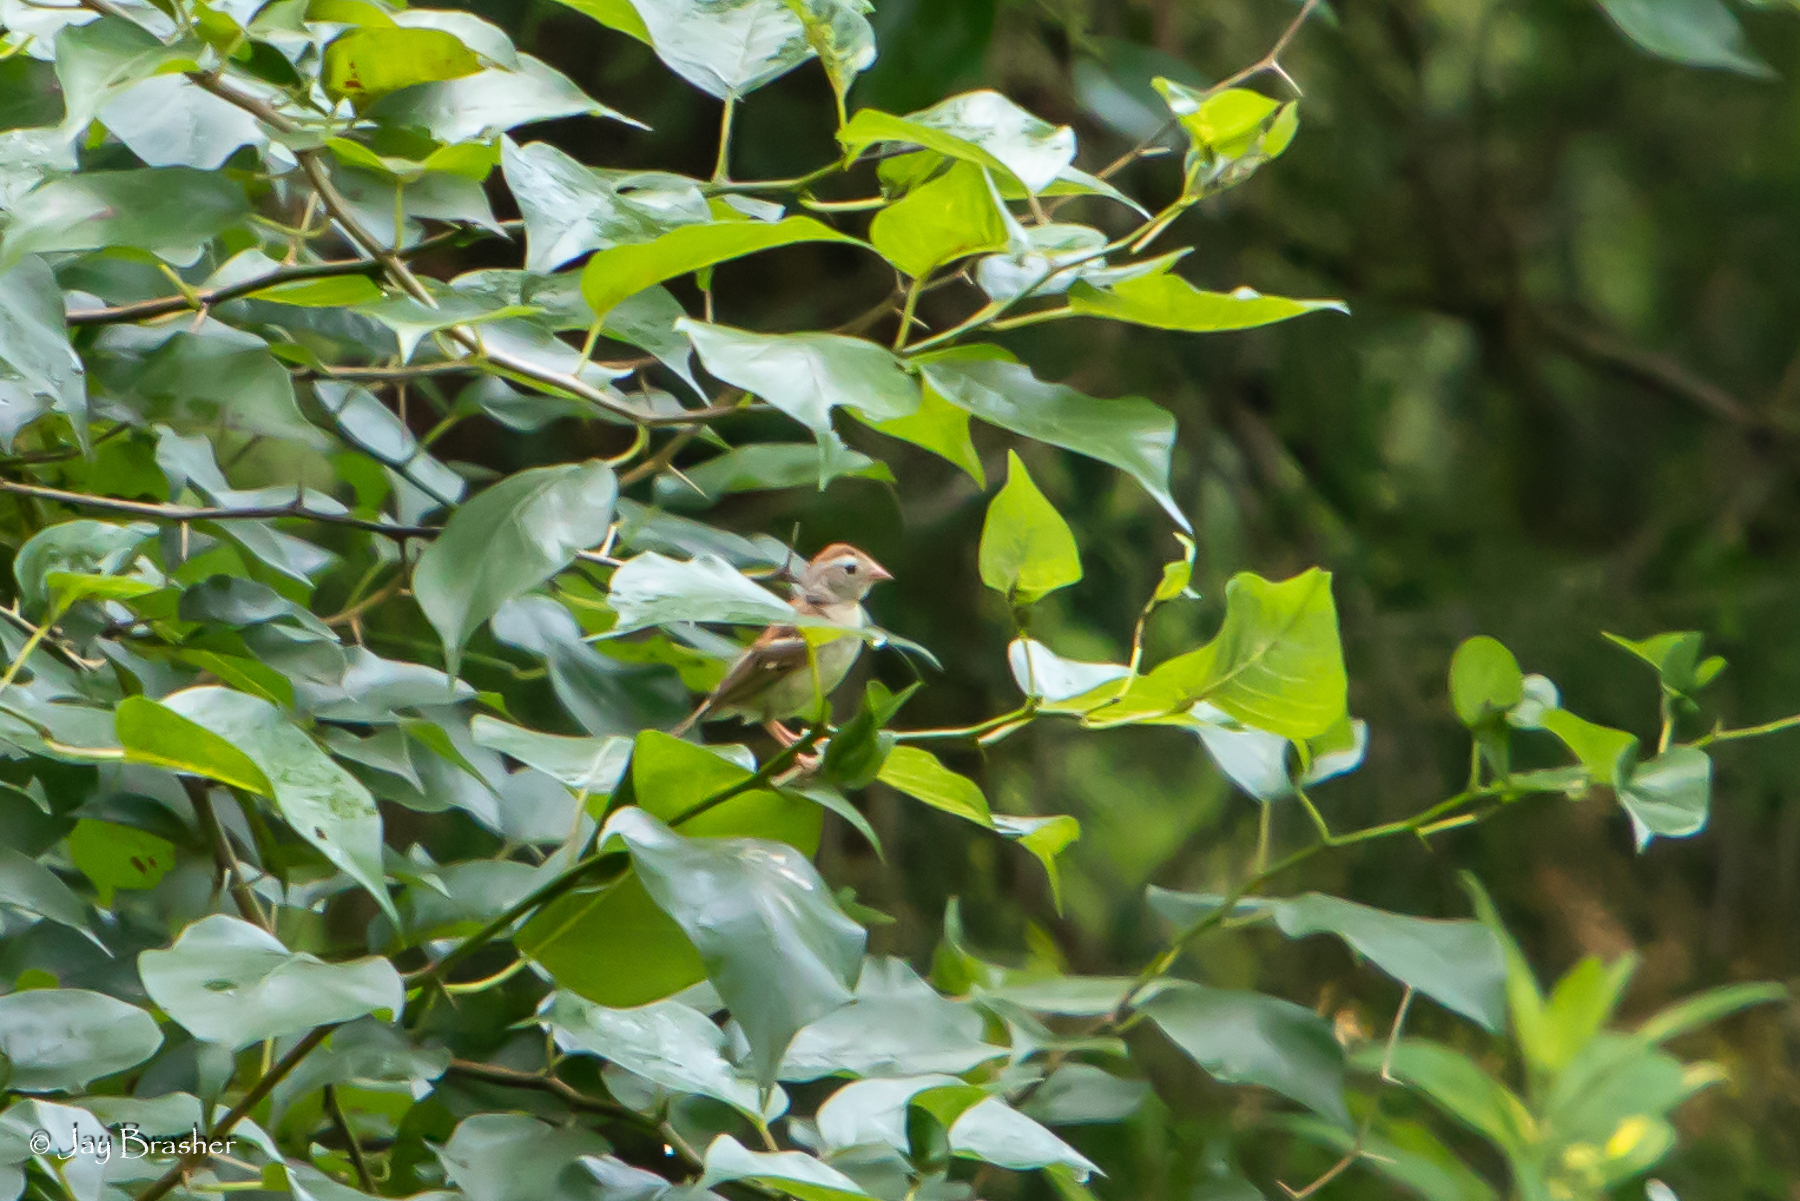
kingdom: Animalia
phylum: Chordata
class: Aves
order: Passeriformes
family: Passerellidae
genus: Spizella
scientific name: Spizella pusilla
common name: Field sparrow
